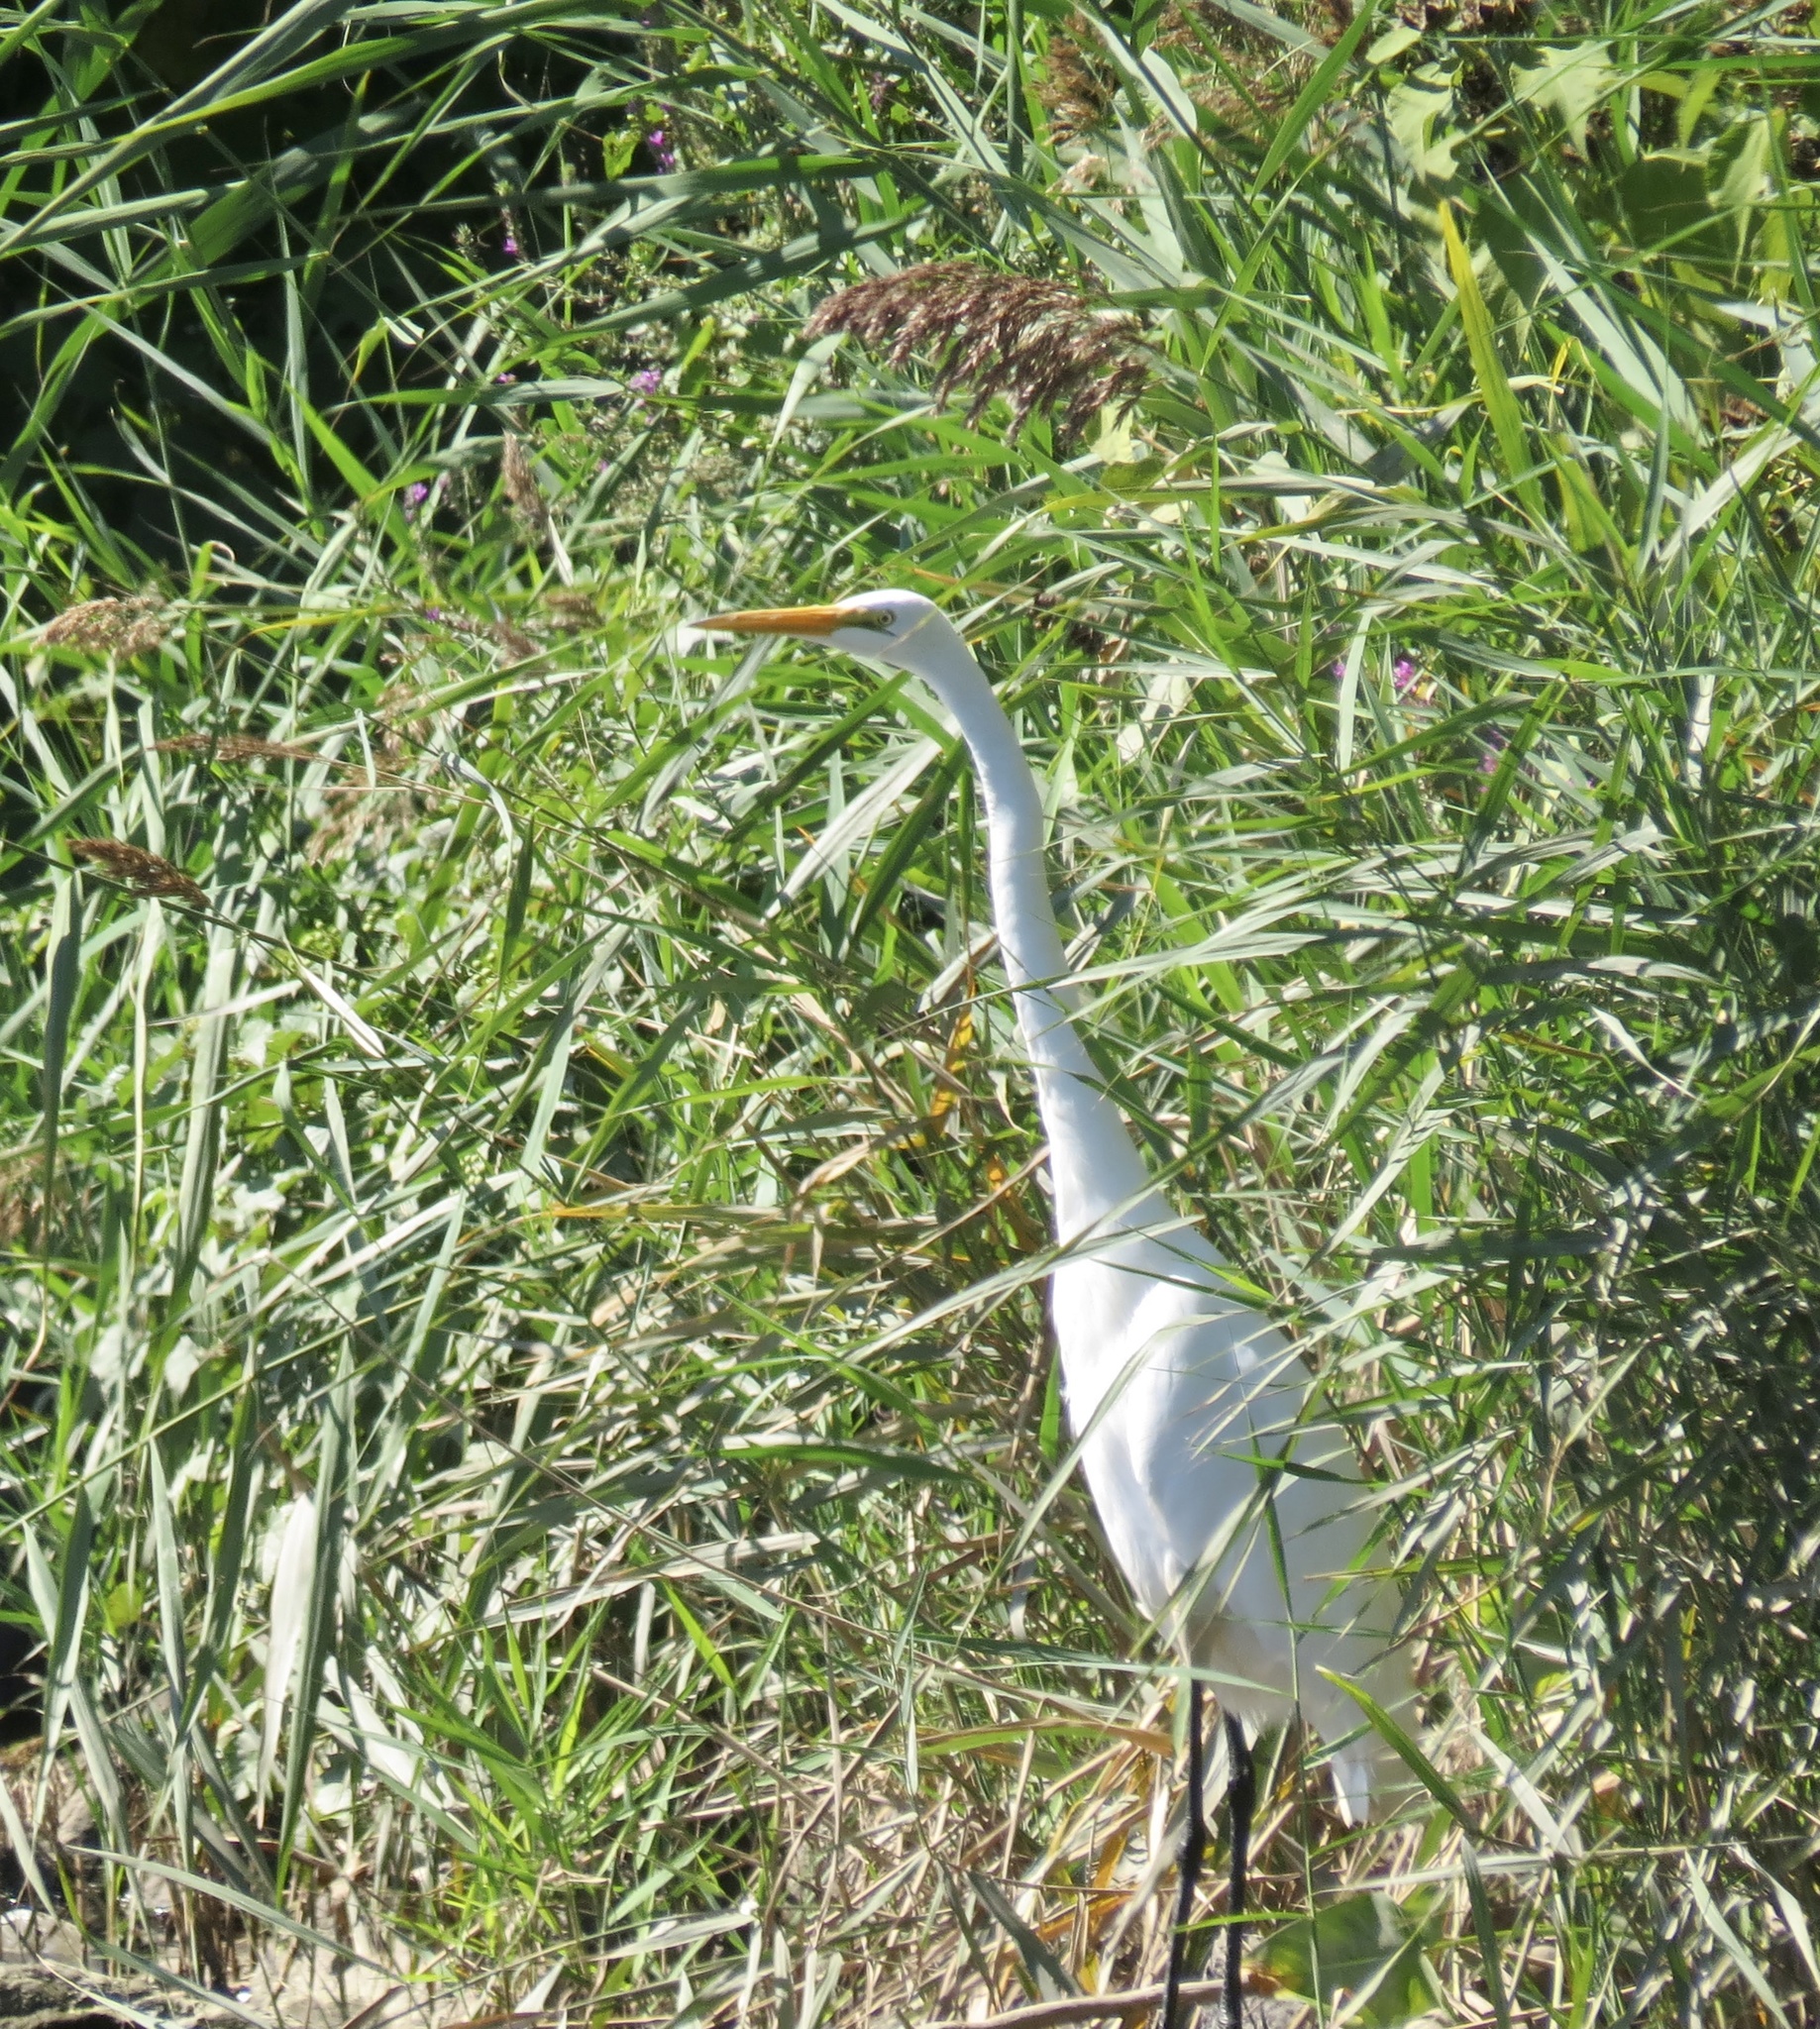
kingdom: Animalia
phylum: Chordata
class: Aves
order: Pelecaniformes
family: Ardeidae
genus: Ardea
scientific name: Ardea alba
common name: Great egret
